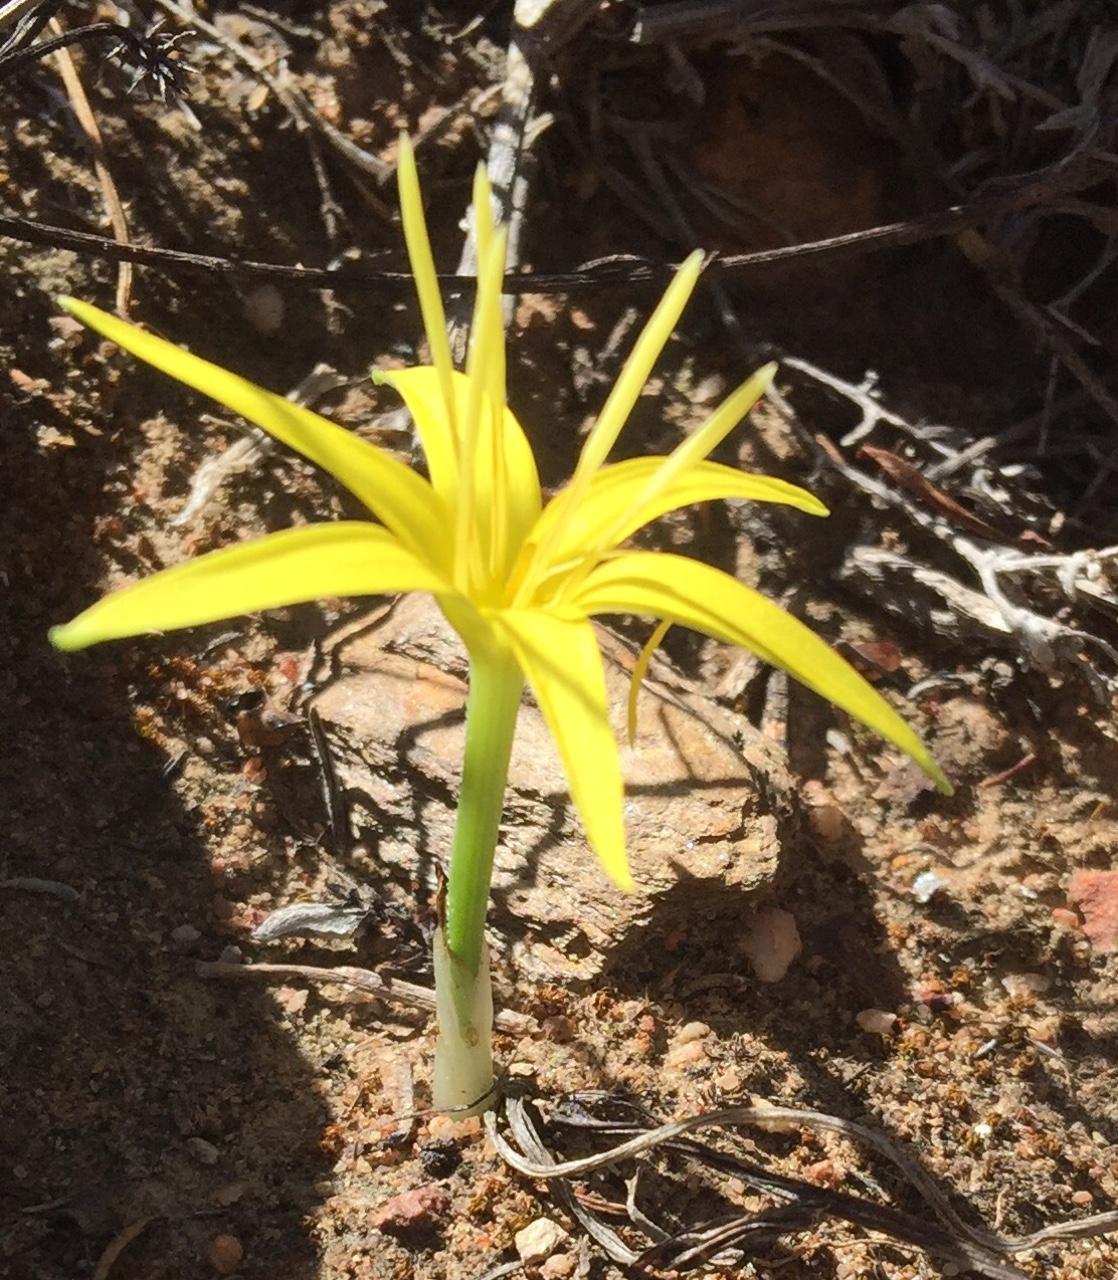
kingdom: Plantae
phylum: Tracheophyta
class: Liliopsida
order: Asparagales
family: Hypoxidaceae
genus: Empodium
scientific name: Empodium flexile
